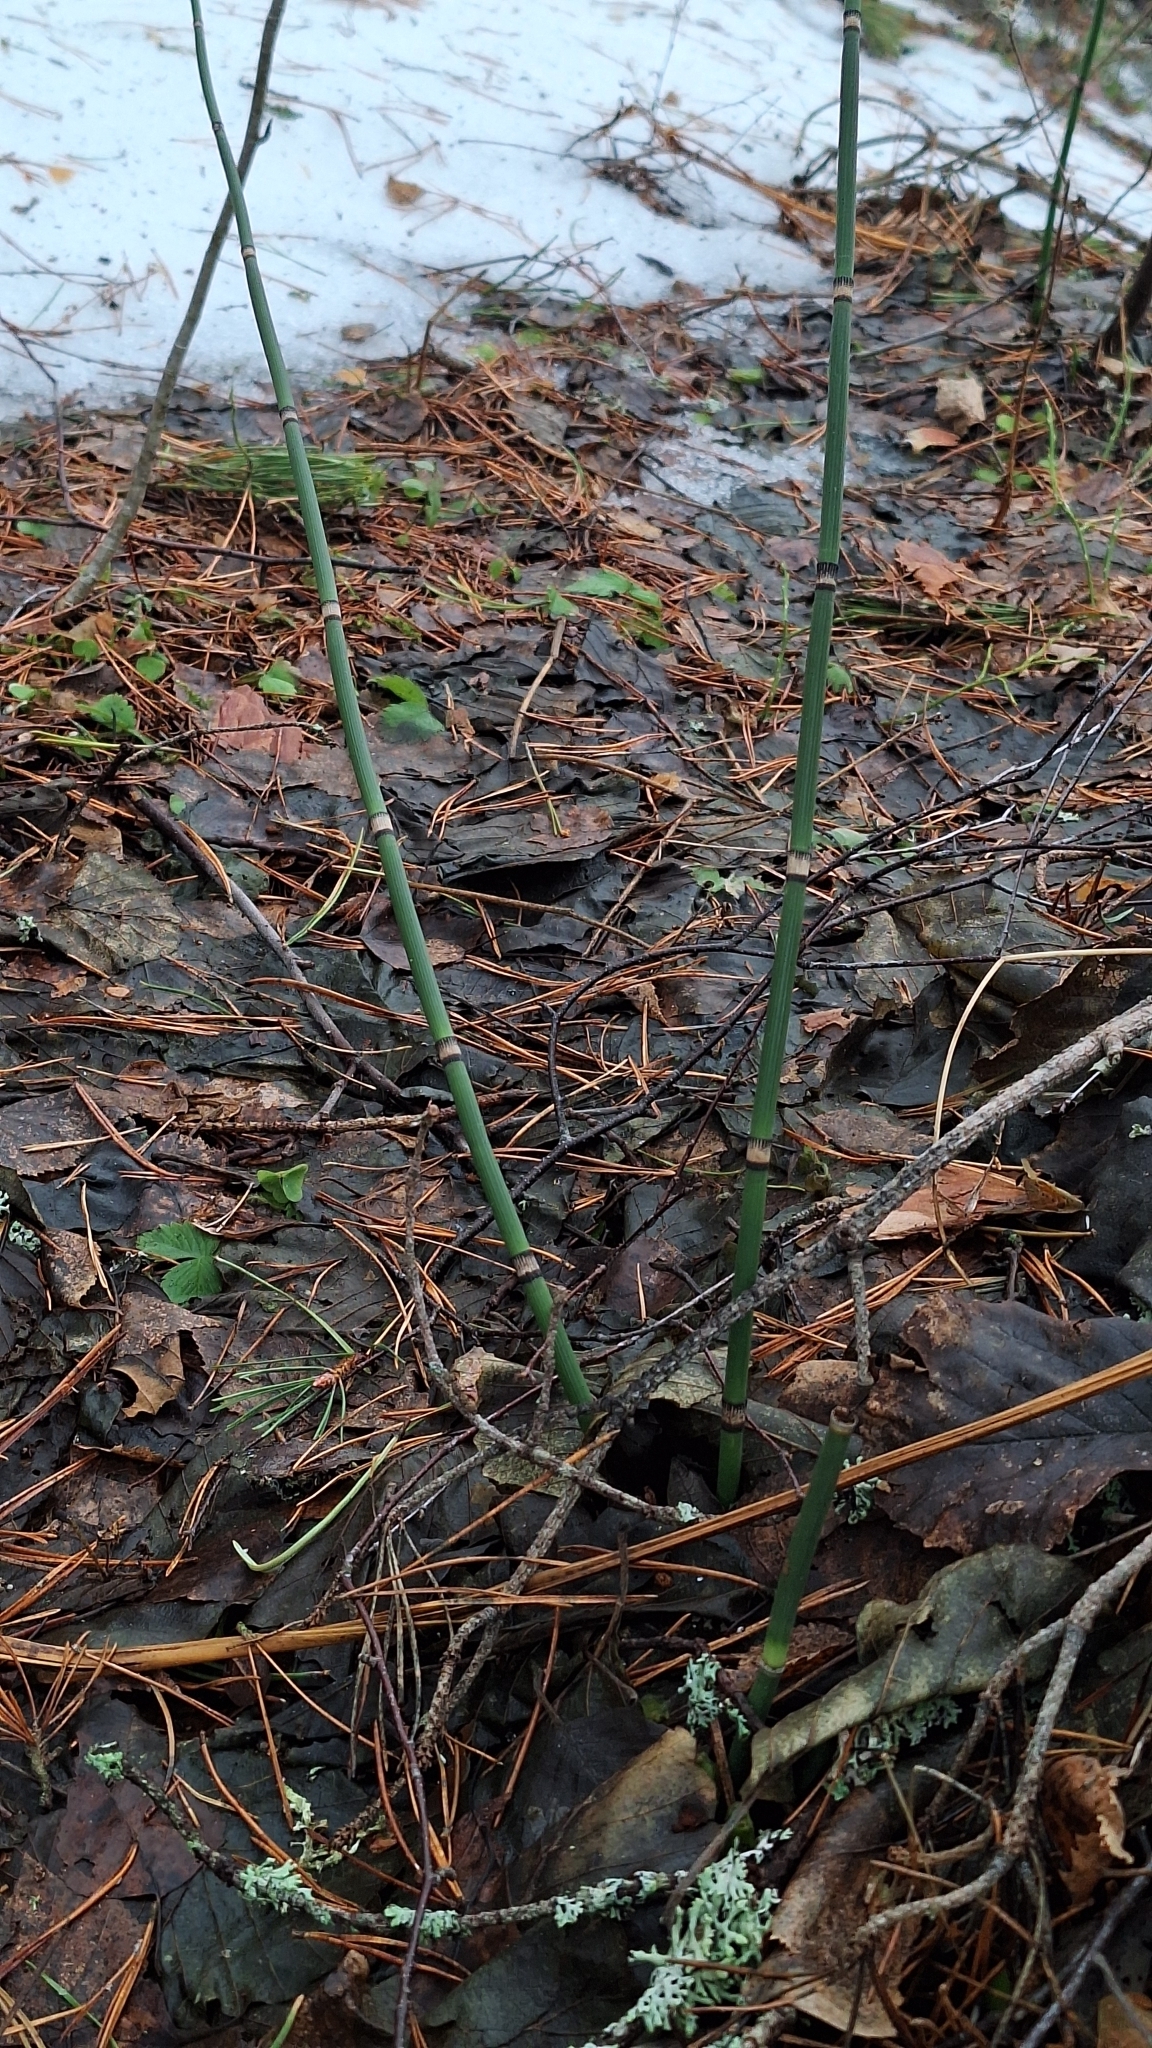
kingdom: Plantae
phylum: Tracheophyta
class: Polypodiopsida
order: Equisetales
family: Equisetaceae
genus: Equisetum
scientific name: Equisetum hyemale
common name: Rough horsetail
